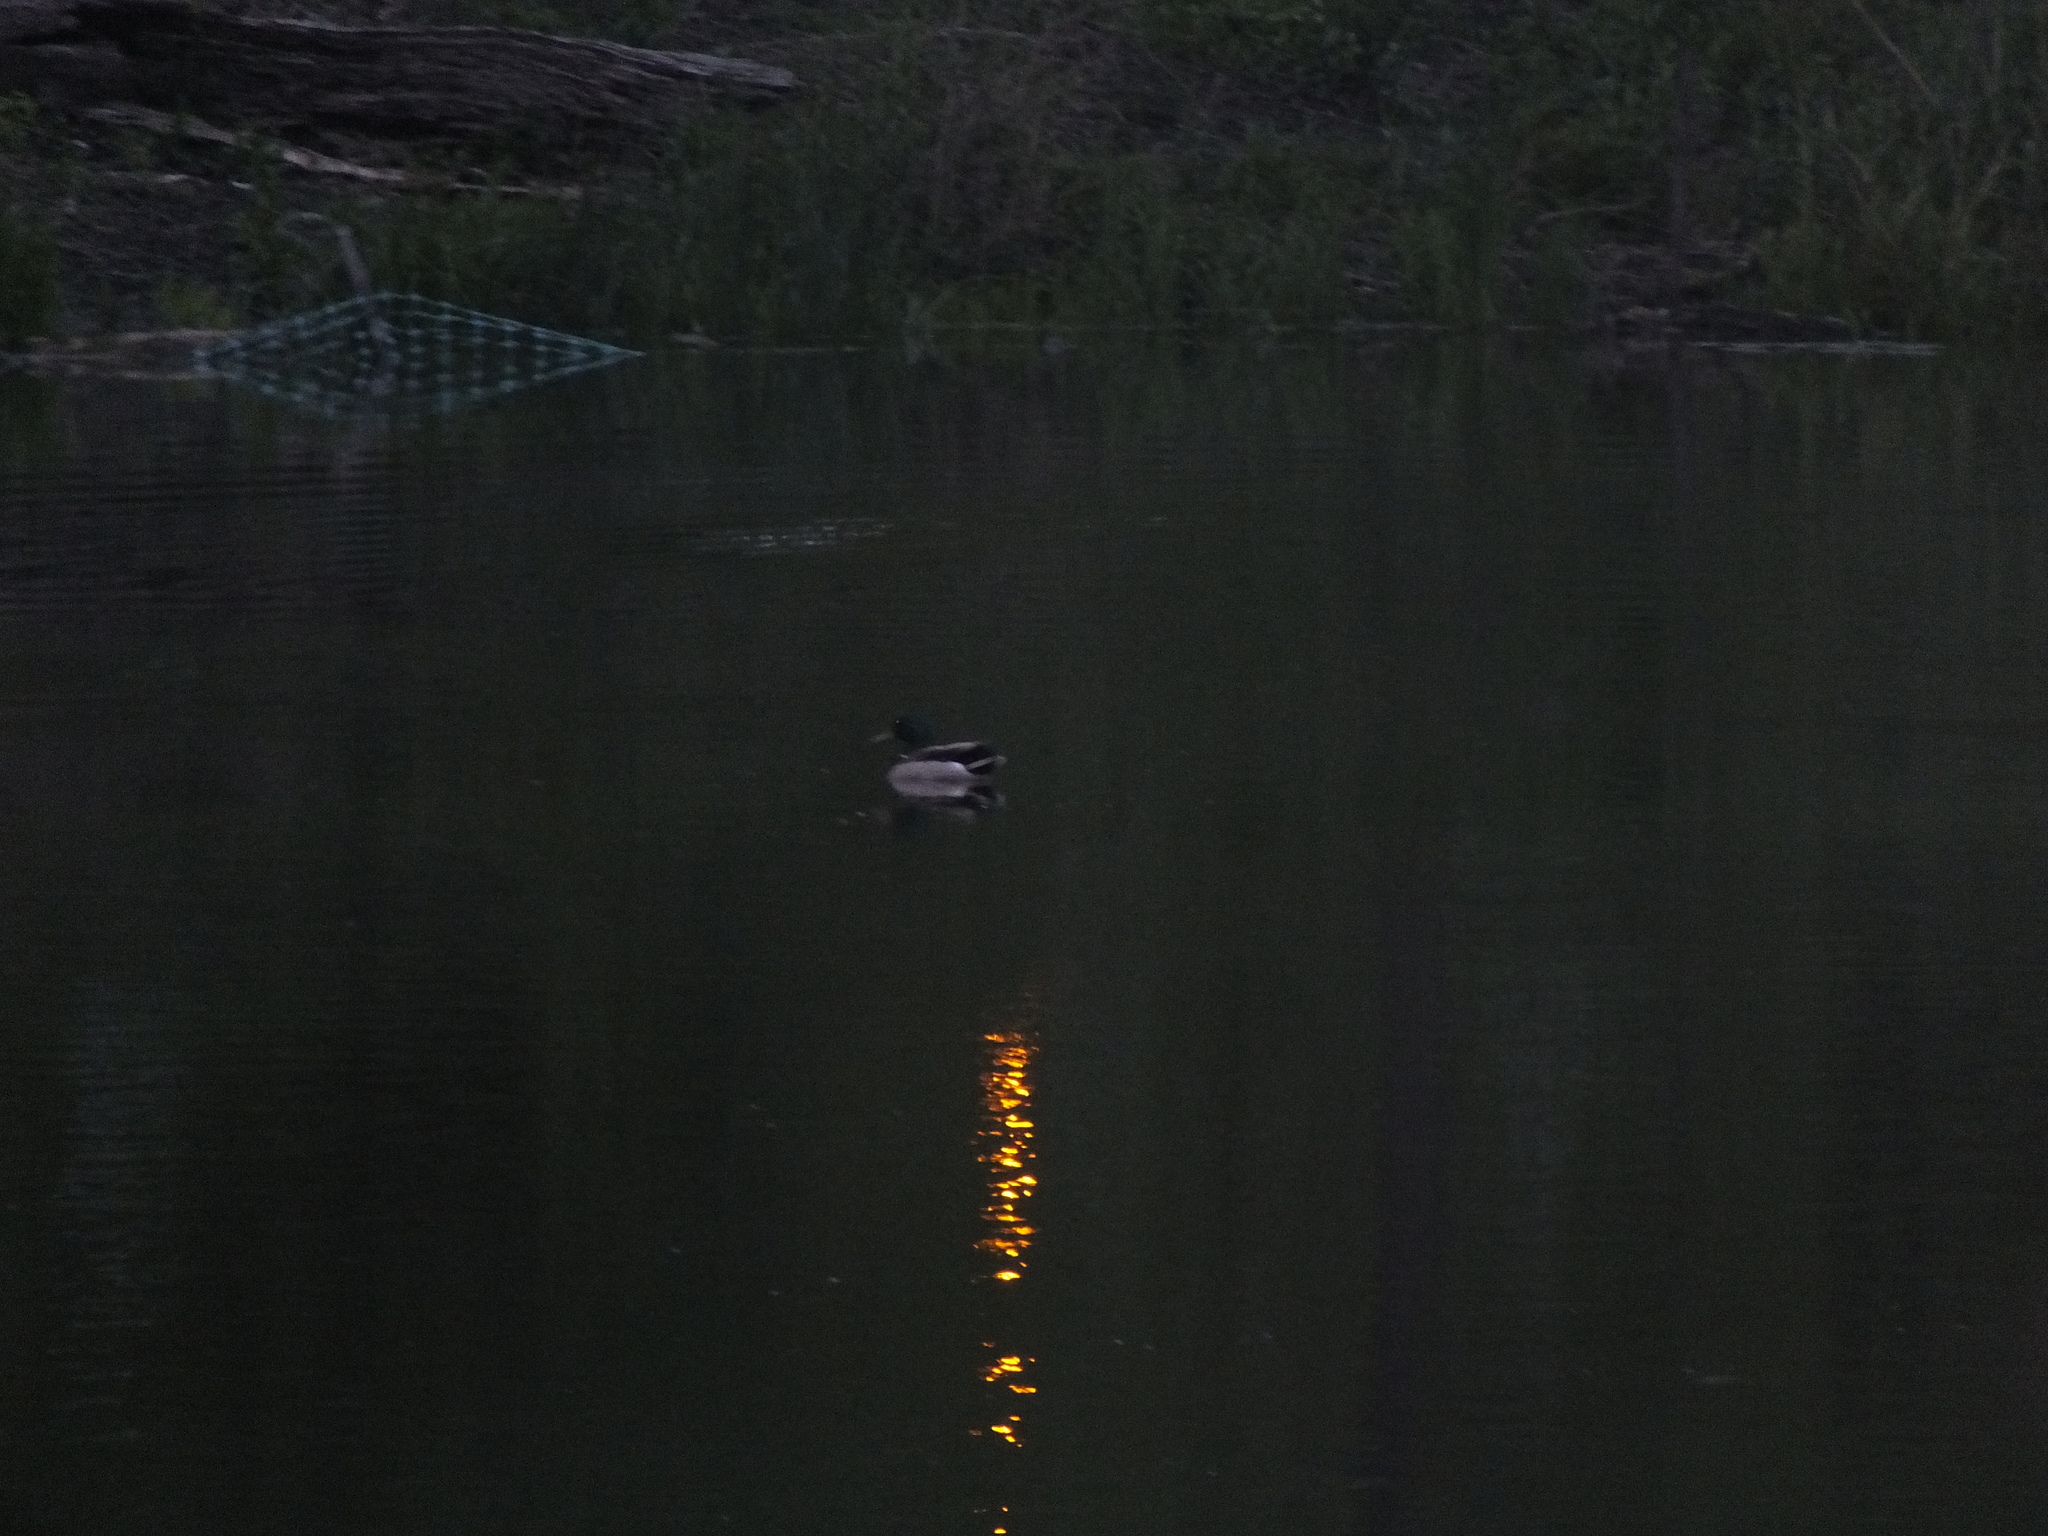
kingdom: Animalia
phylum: Chordata
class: Aves
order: Anseriformes
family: Anatidae
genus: Anas
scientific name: Anas platyrhynchos
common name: Mallard
